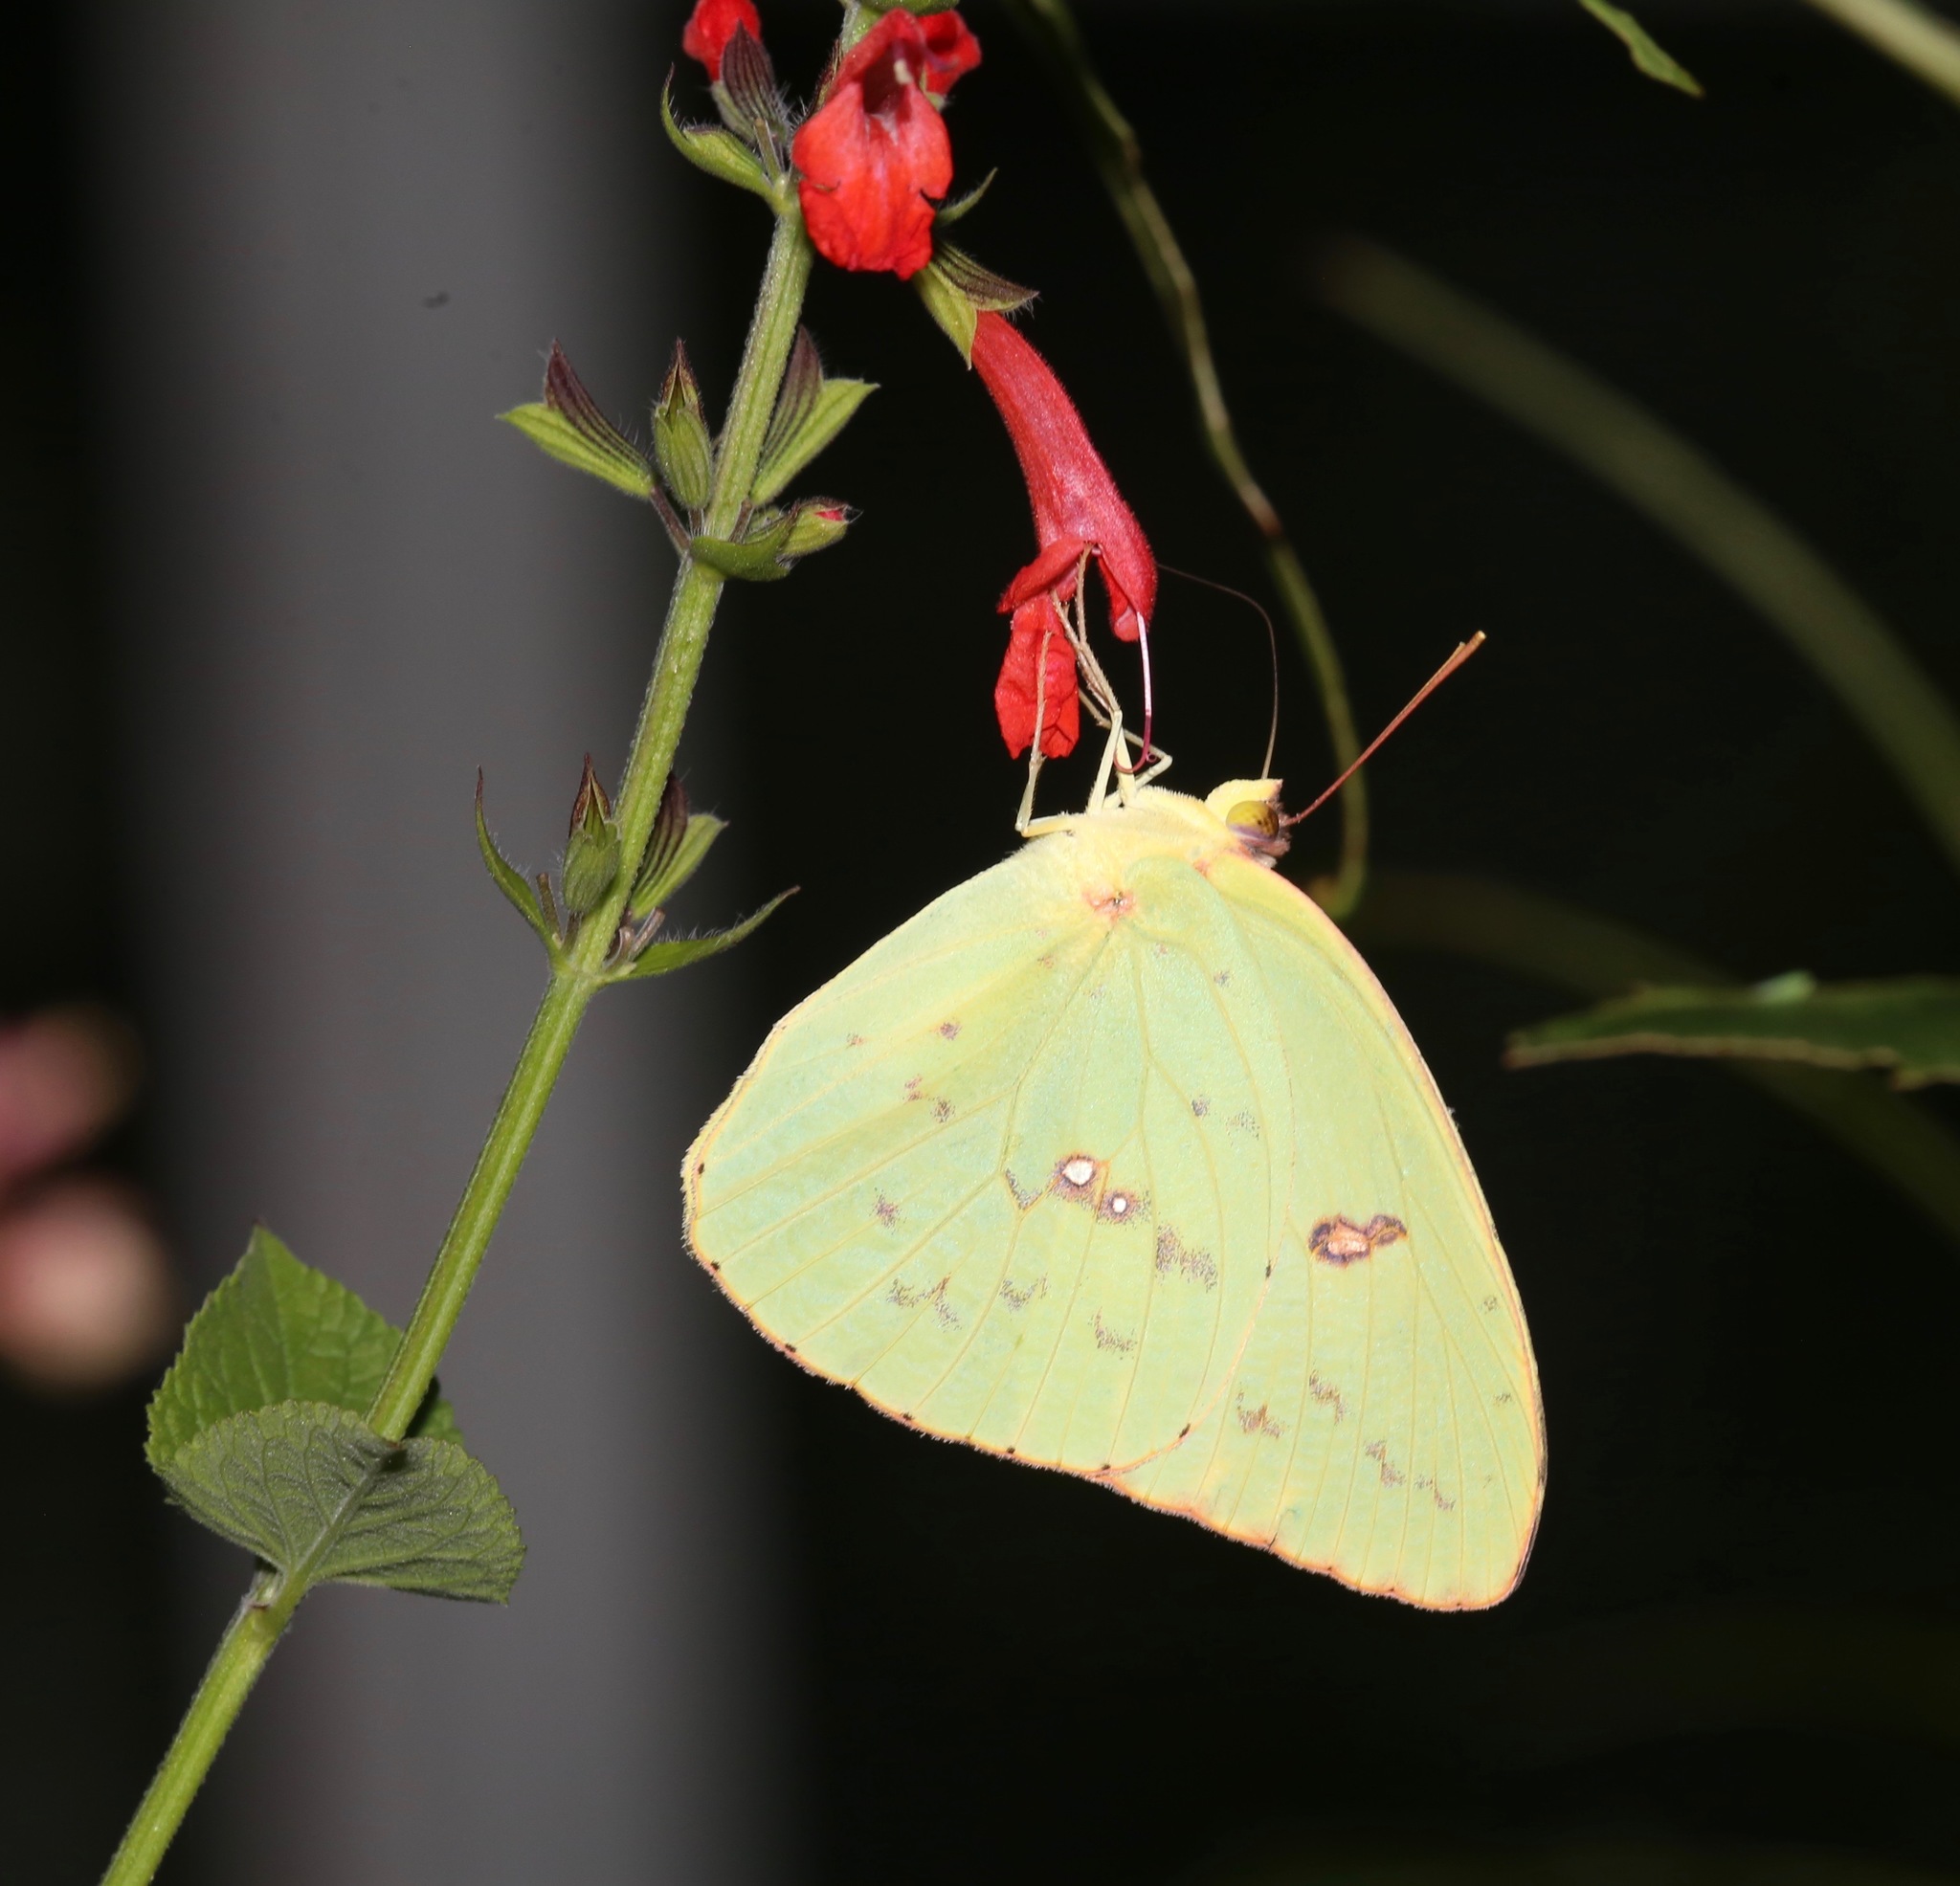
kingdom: Animalia
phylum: Arthropoda
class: Insecta
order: Lepidoptera
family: Pieridae
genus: Phoebis
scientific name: Phoebis sennae
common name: Cloudless sulphur
